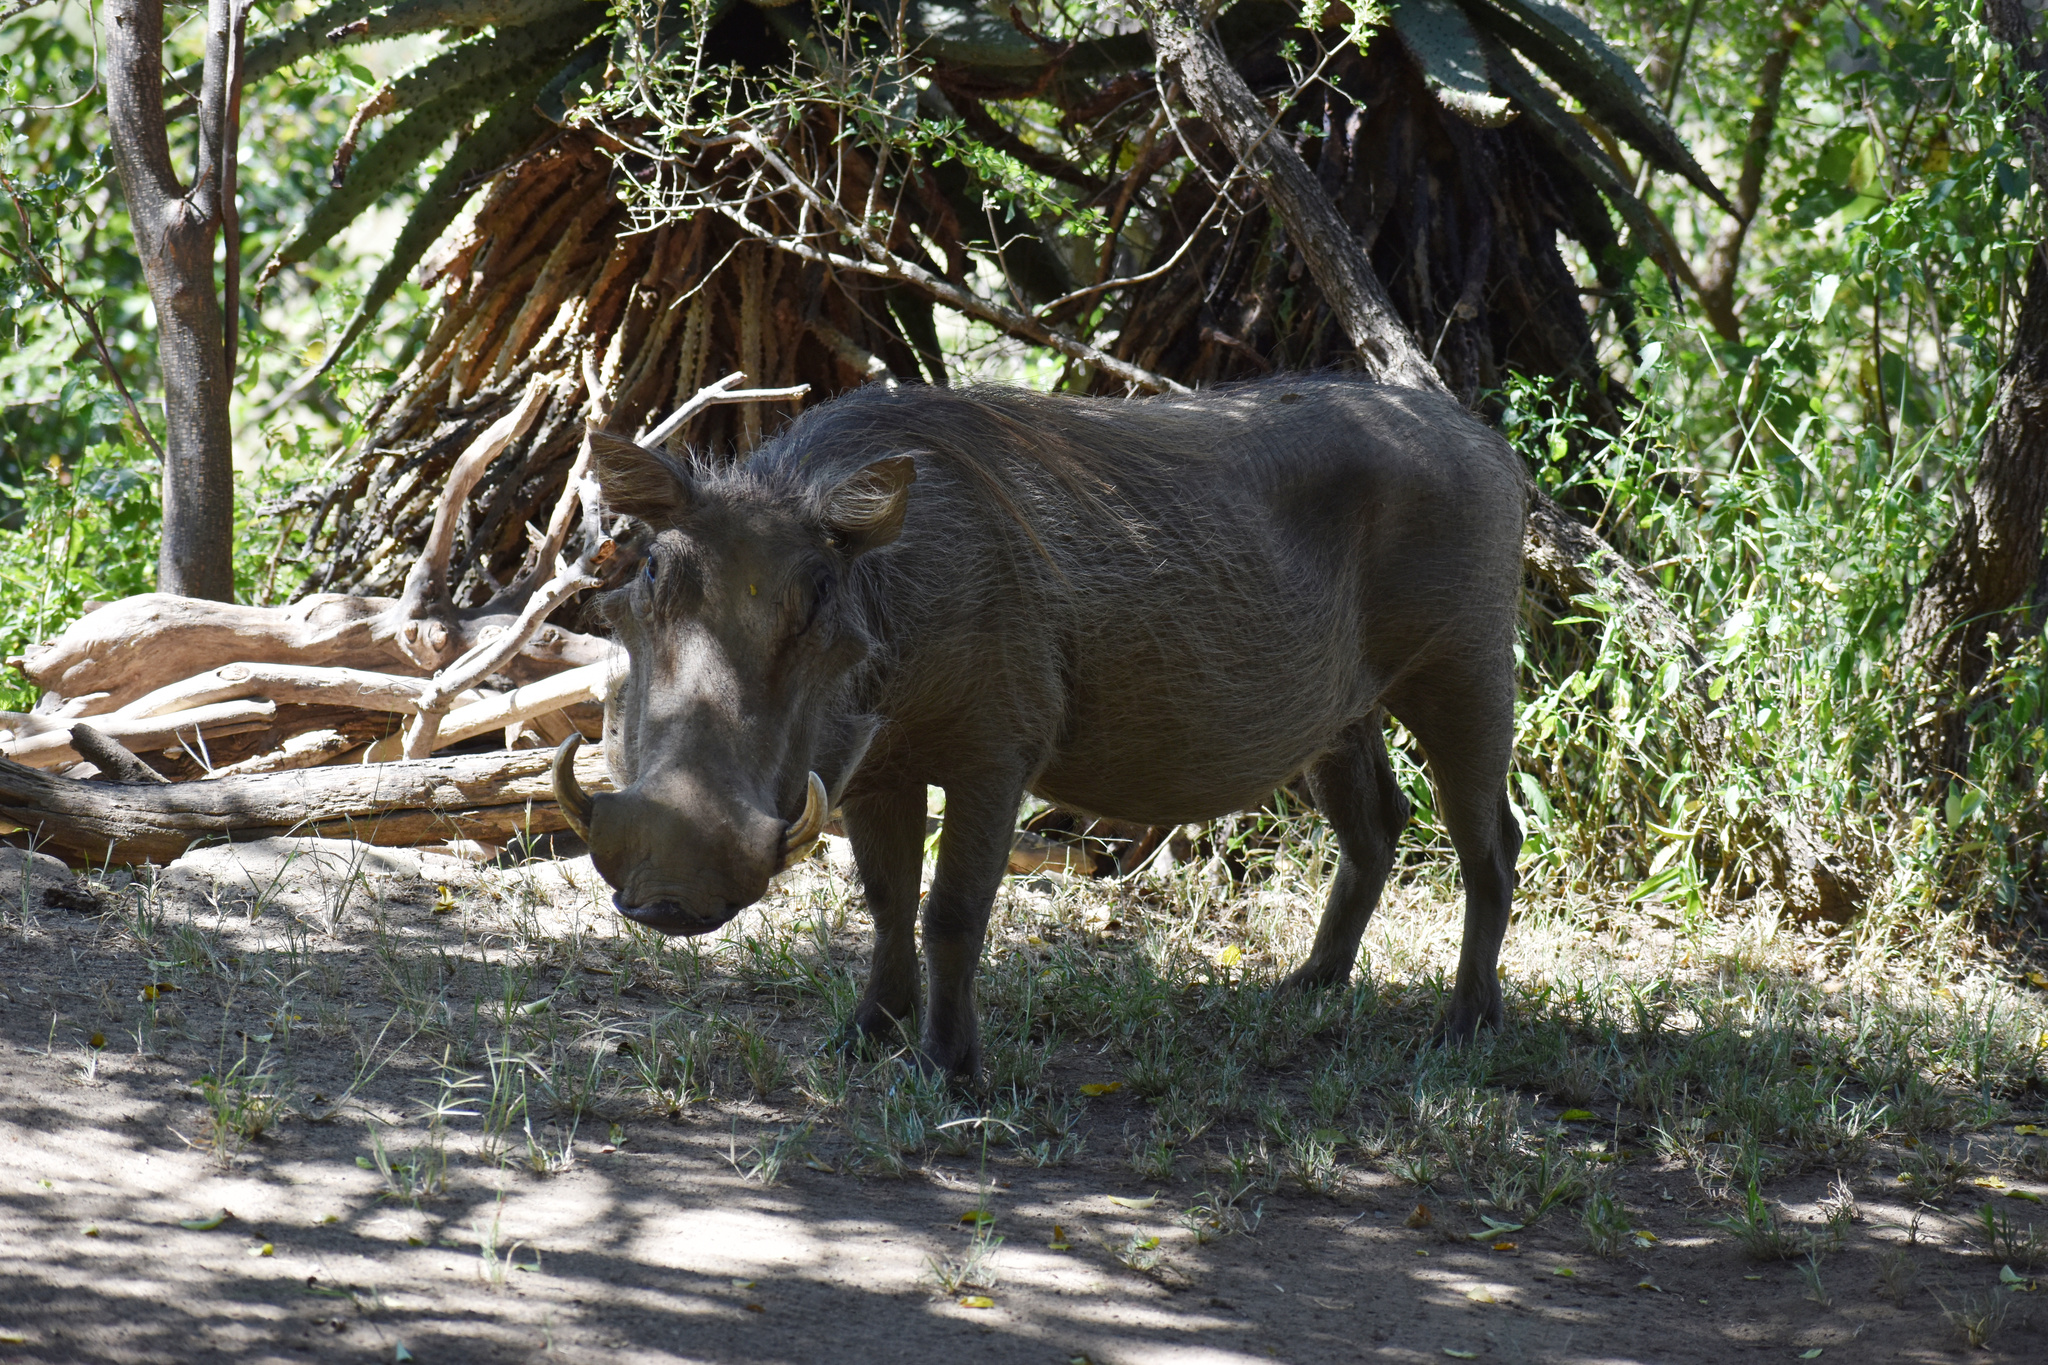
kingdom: Animalia
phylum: Chordata
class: Mammalia
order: Artiodactyla
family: Suidae
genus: Phacochoerus
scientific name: Phacochoerus africanus
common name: Common warthog
